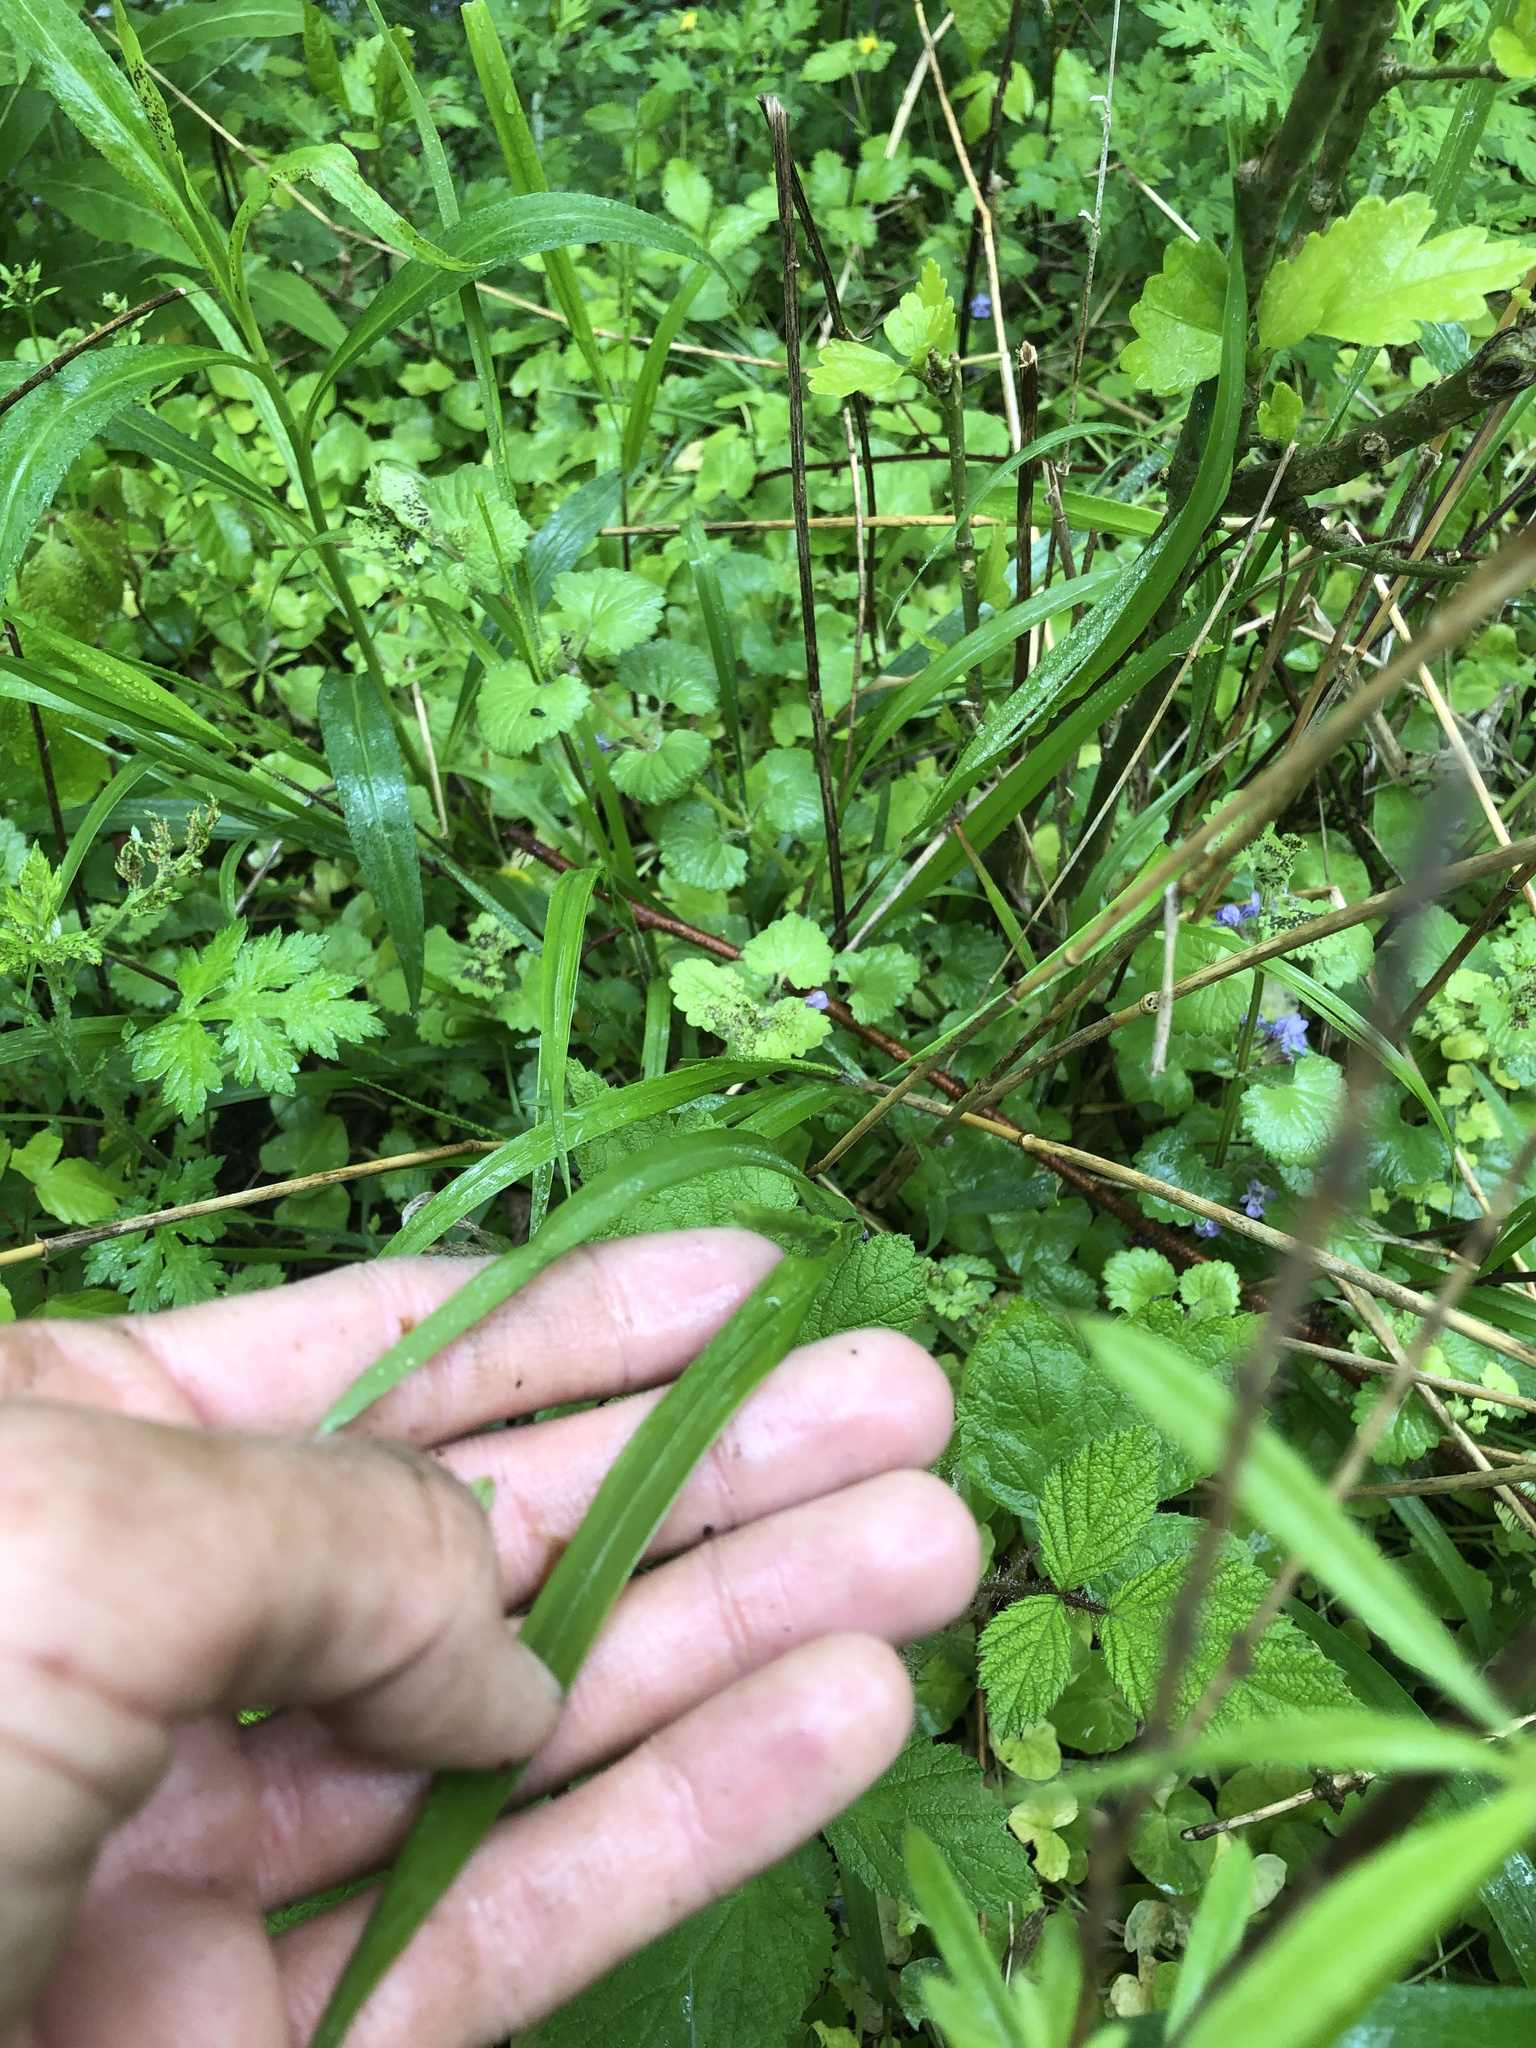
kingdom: Plantae
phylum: Tracheophyta
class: Liliopsida
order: Poales
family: Poaceae
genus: Cenchrus
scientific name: Cenchrus alopecuroides
